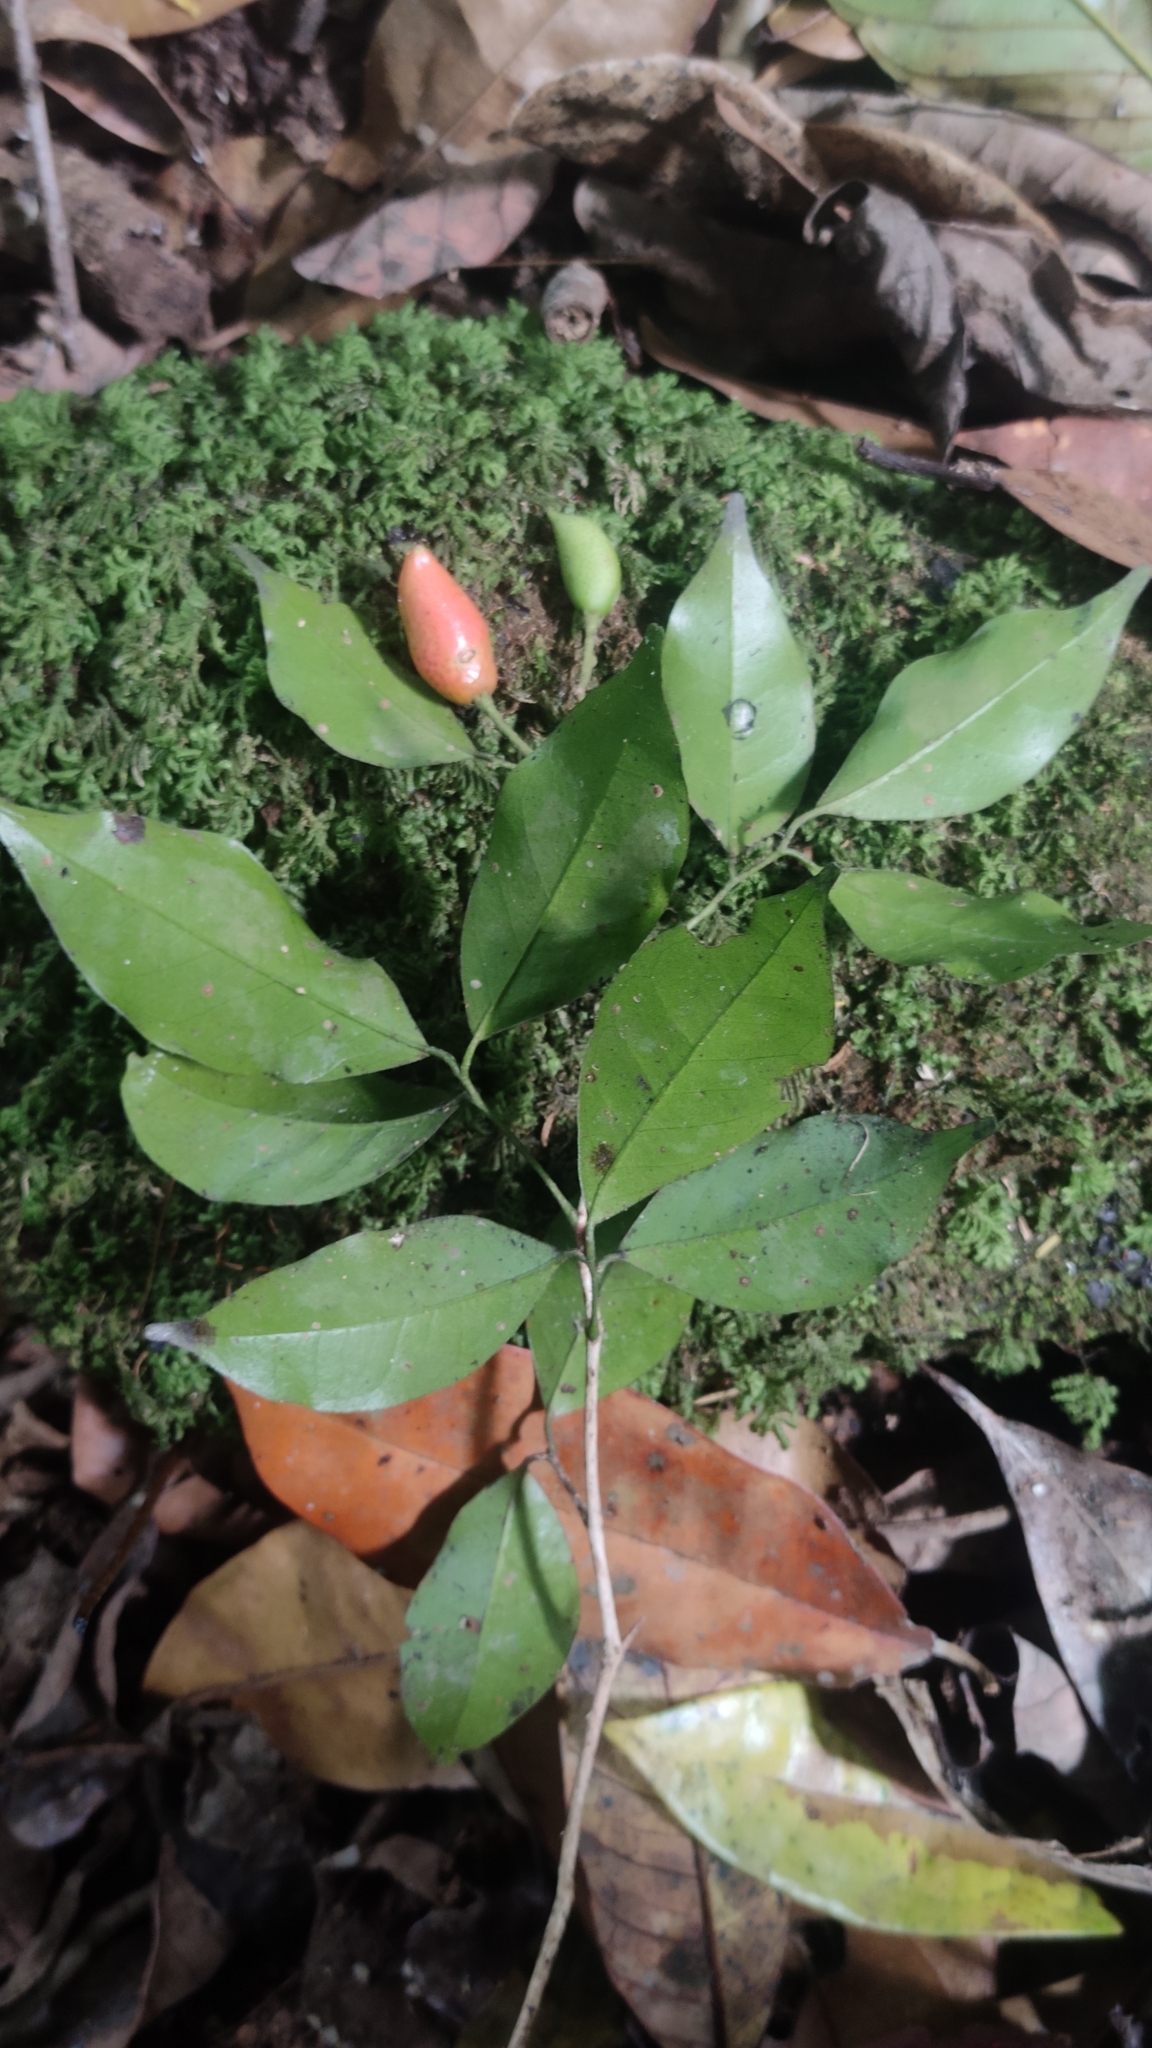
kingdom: Plantae
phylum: Tracheophyta
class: Magnoliopsida
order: Sapindales
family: Rutaceae
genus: Murraya
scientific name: Murraya paniculata
